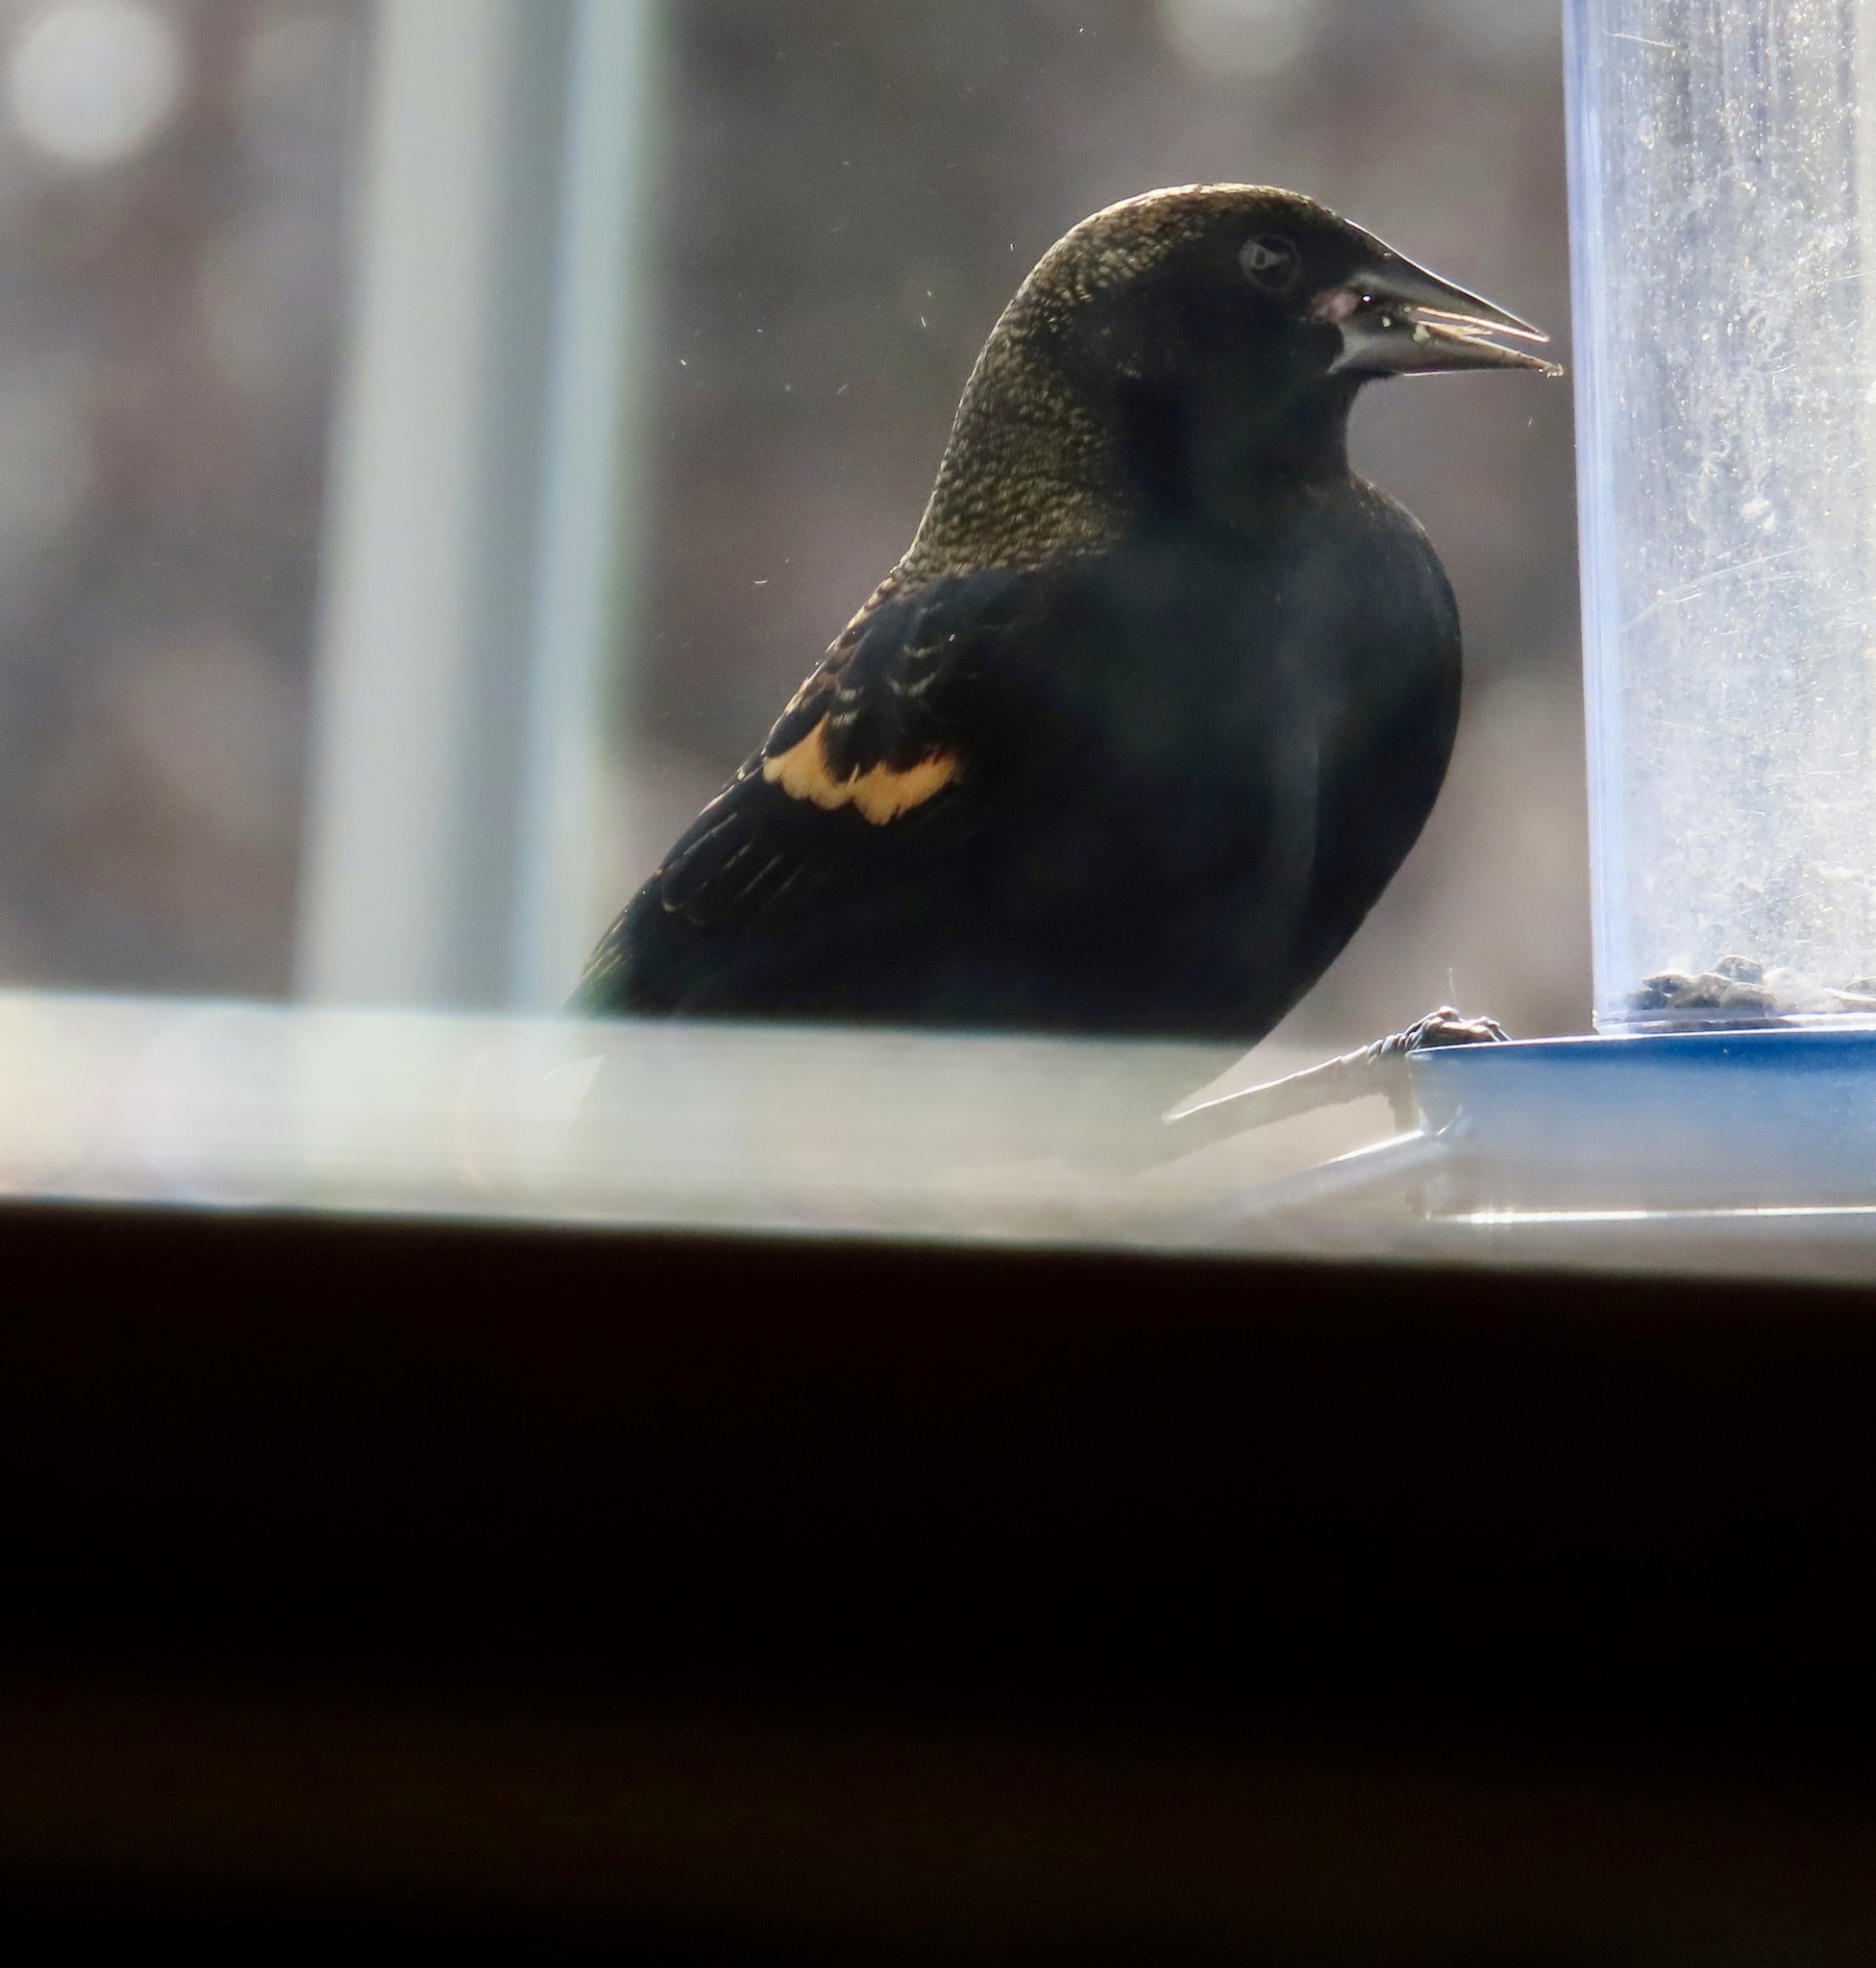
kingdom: Animalia
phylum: Chordata
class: Aves
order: Passeriformes
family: Icteridae
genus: Agelaius
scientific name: Agelaius phoeniceus
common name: Red-winged blackbird
